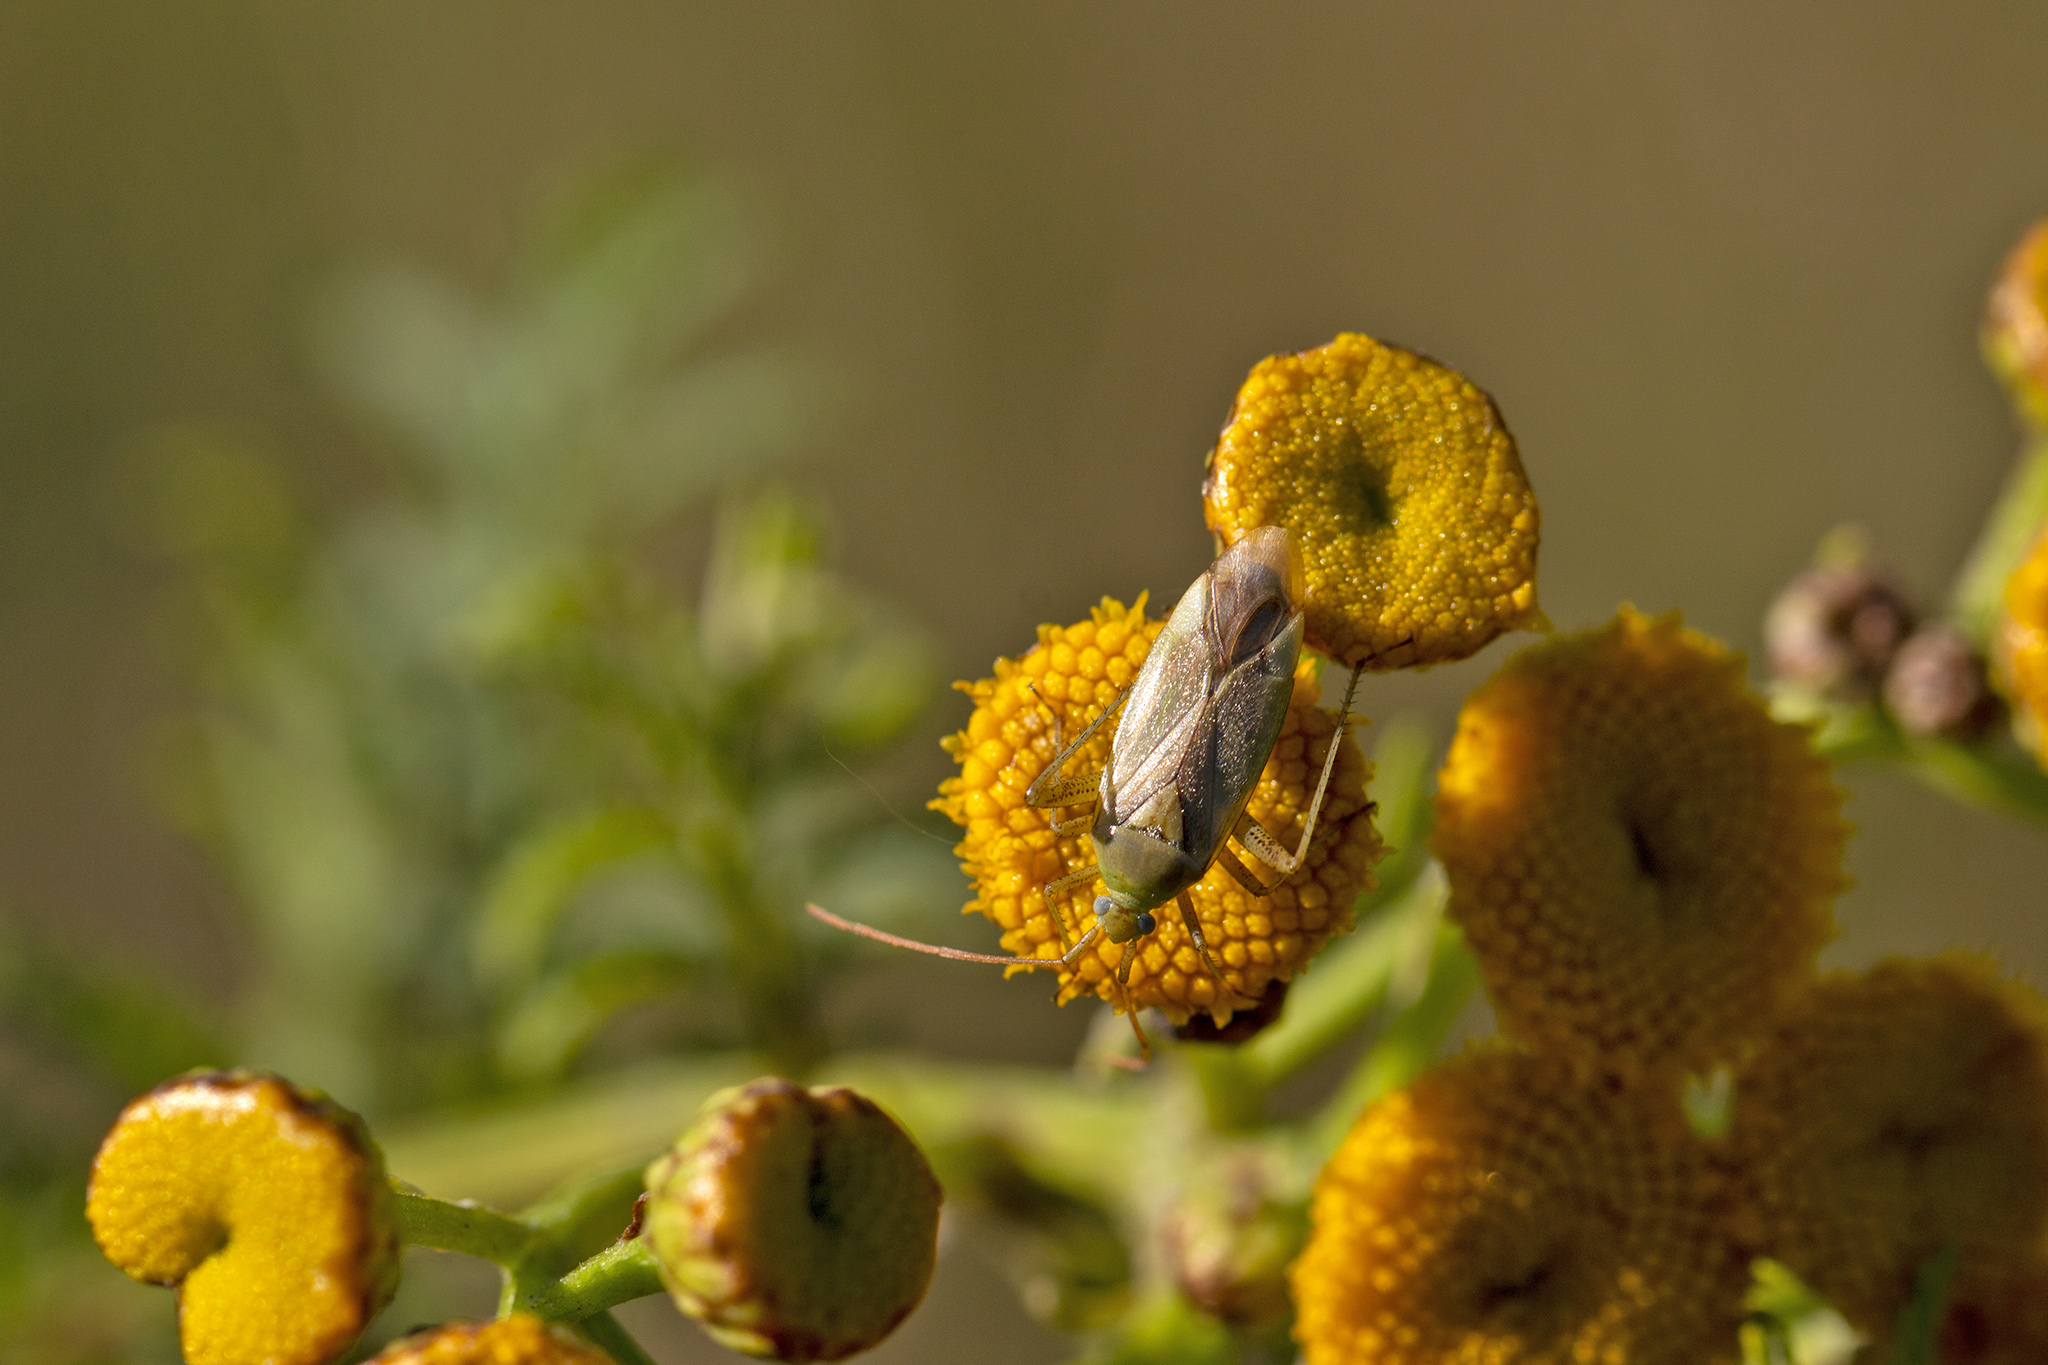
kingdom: Animalia
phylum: Arthropoda
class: Insecta
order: Hemiptera
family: Miridae
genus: Adelphocoris
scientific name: Adelphocoris lineolatus
